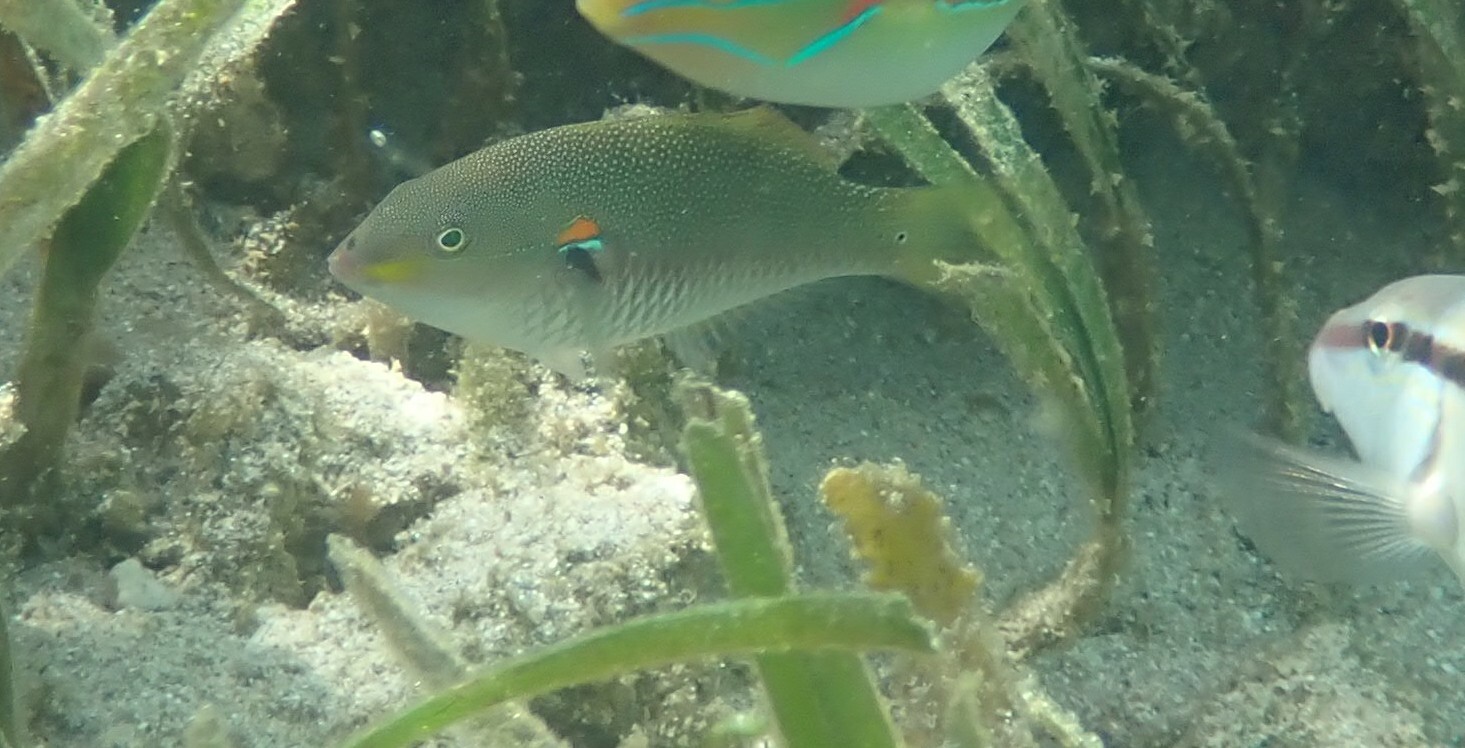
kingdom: Animalia
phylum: Chordata
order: Perciformes
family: Labridae
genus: Stethojulis
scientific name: Stethojulis bandanensis
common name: Red shoulder wrasse
